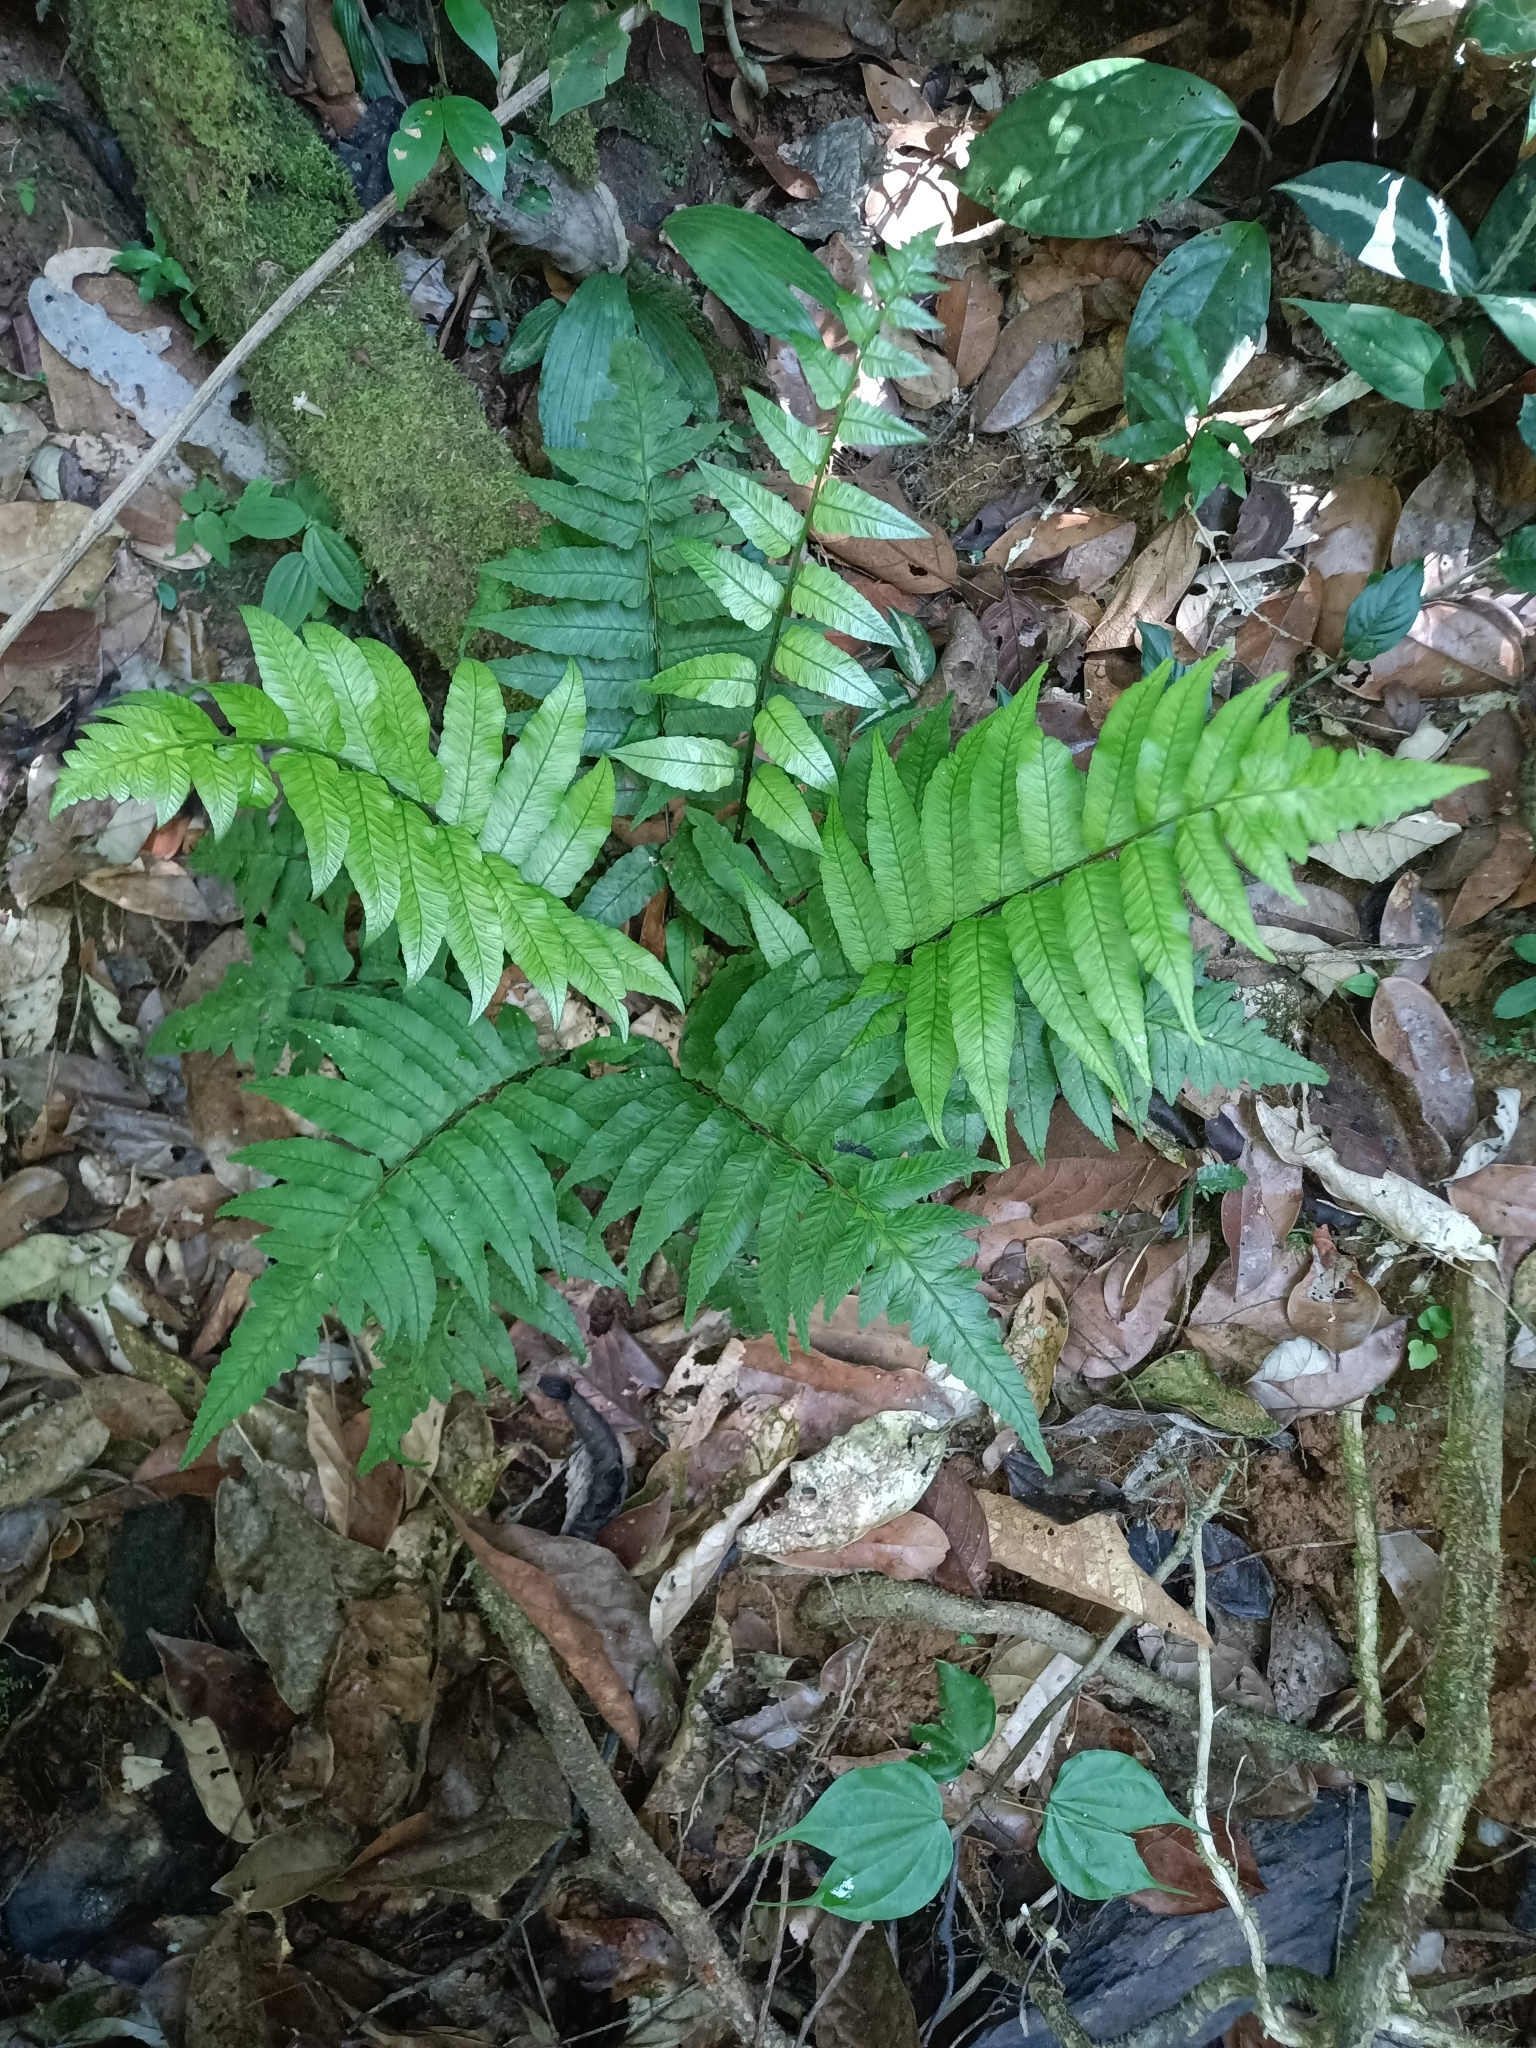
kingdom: Plantae
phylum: Tracheophyta
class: Polypodiopsida
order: Polypodiales
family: Athyriaceae
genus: Diplazium
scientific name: Diplazium grandifolium
